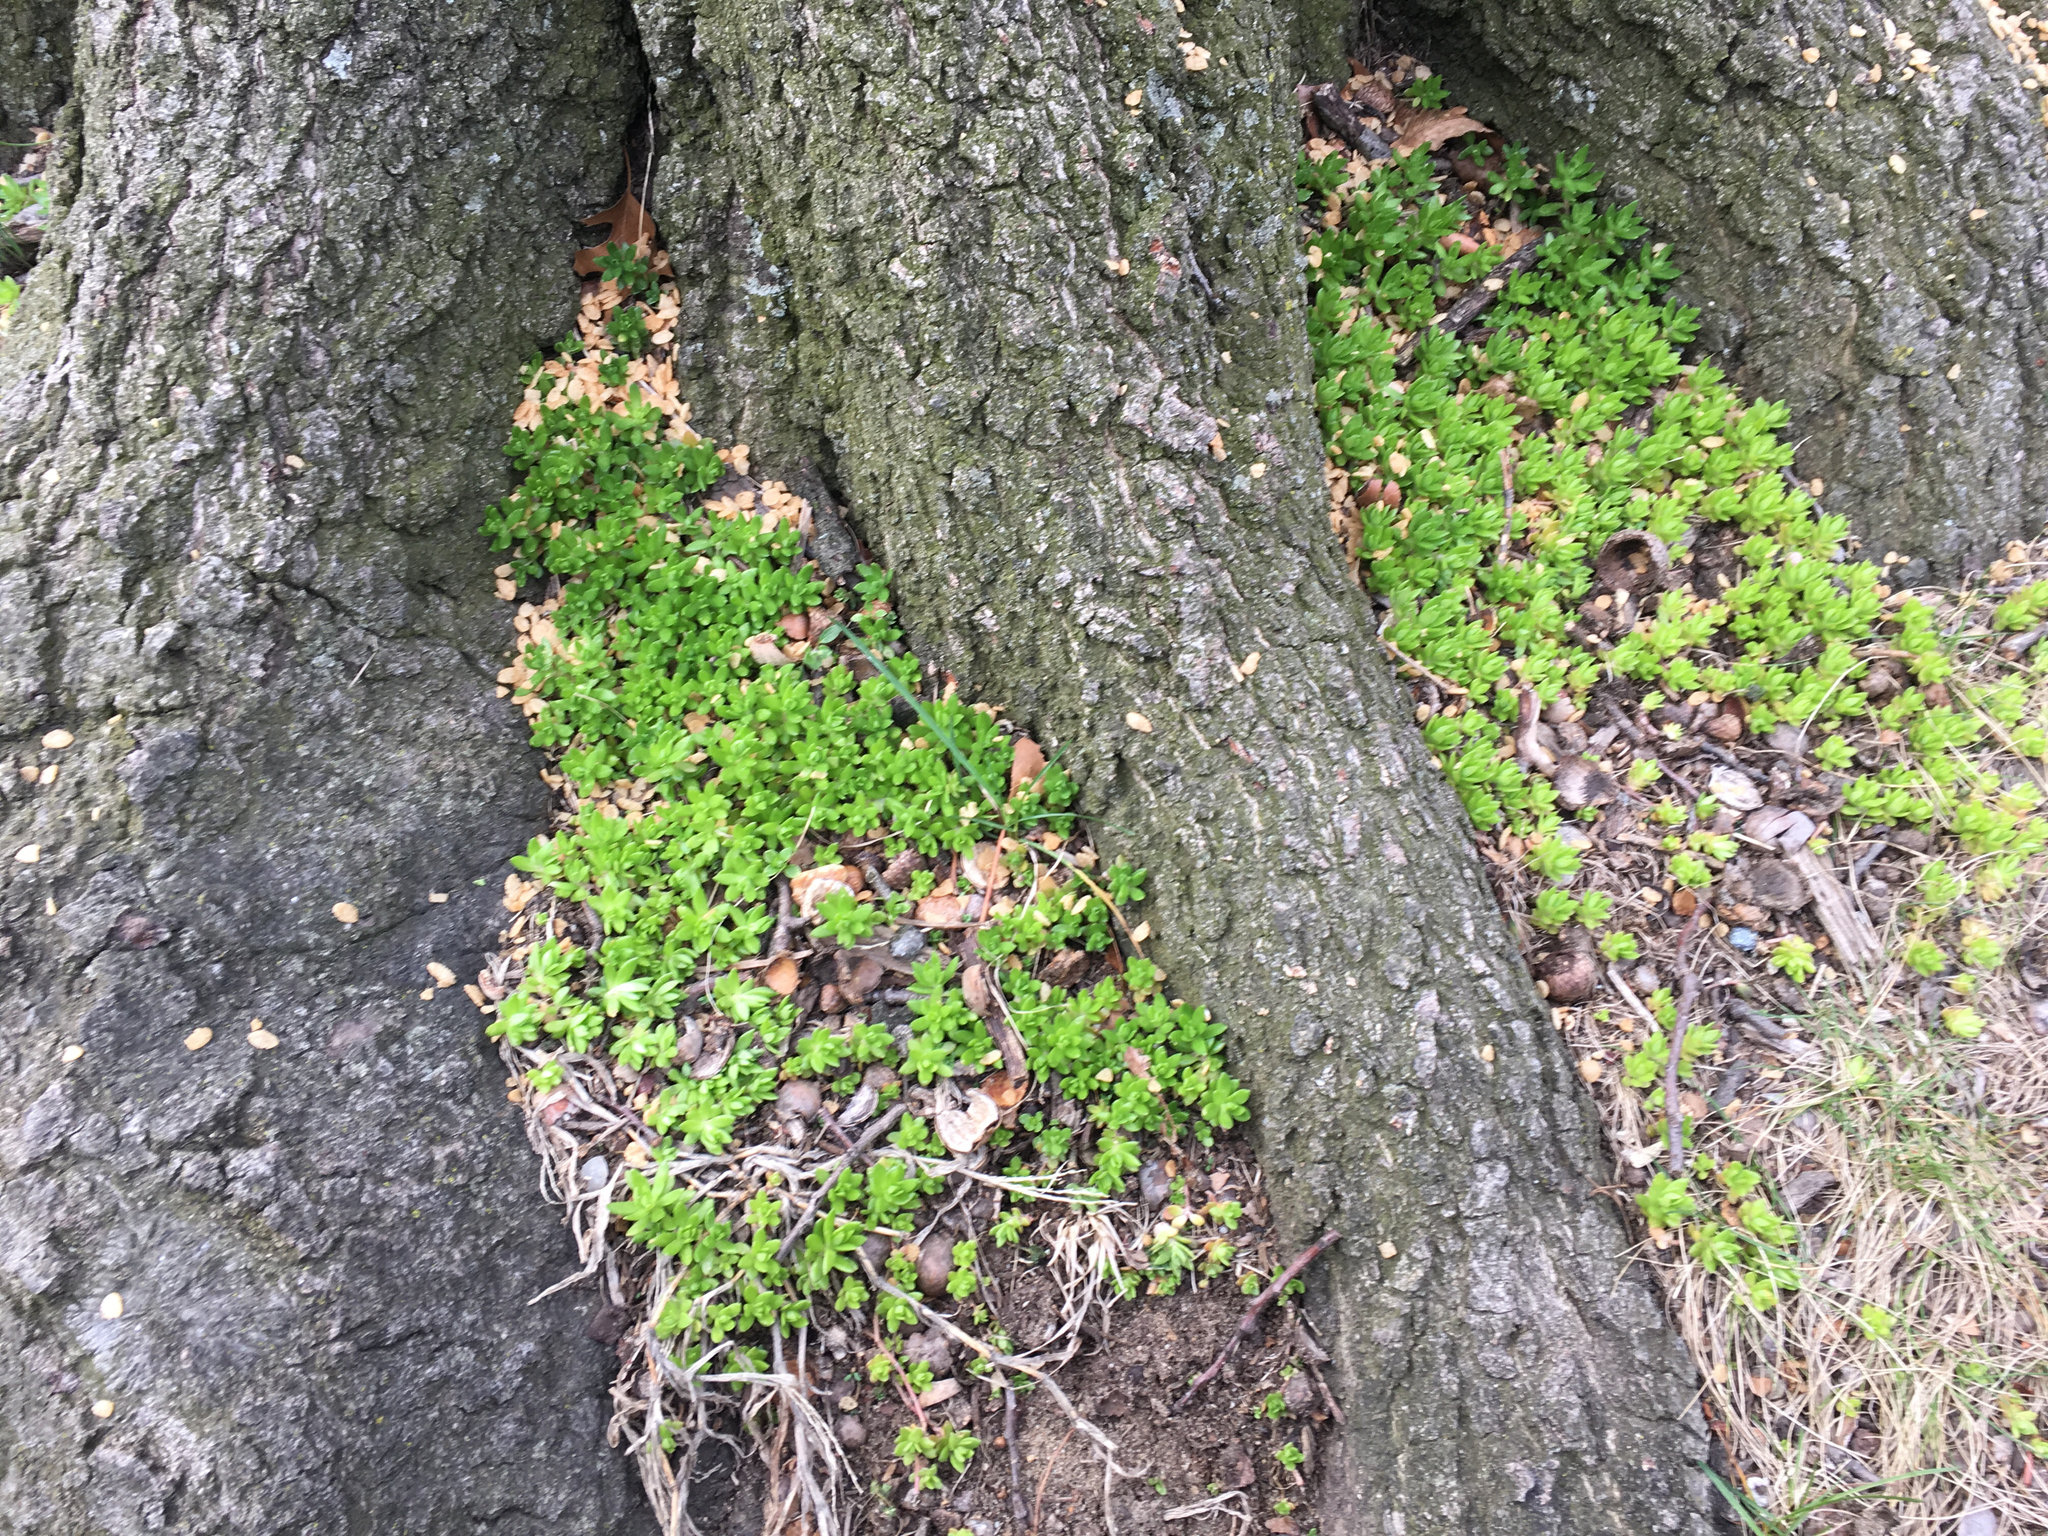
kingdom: Plantae
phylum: Tracheophyta
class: Magnoliopsida
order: Saxifragales
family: Crassulaceae
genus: Sedum
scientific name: Sedum sarmentosum
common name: Stringy stonecrop
